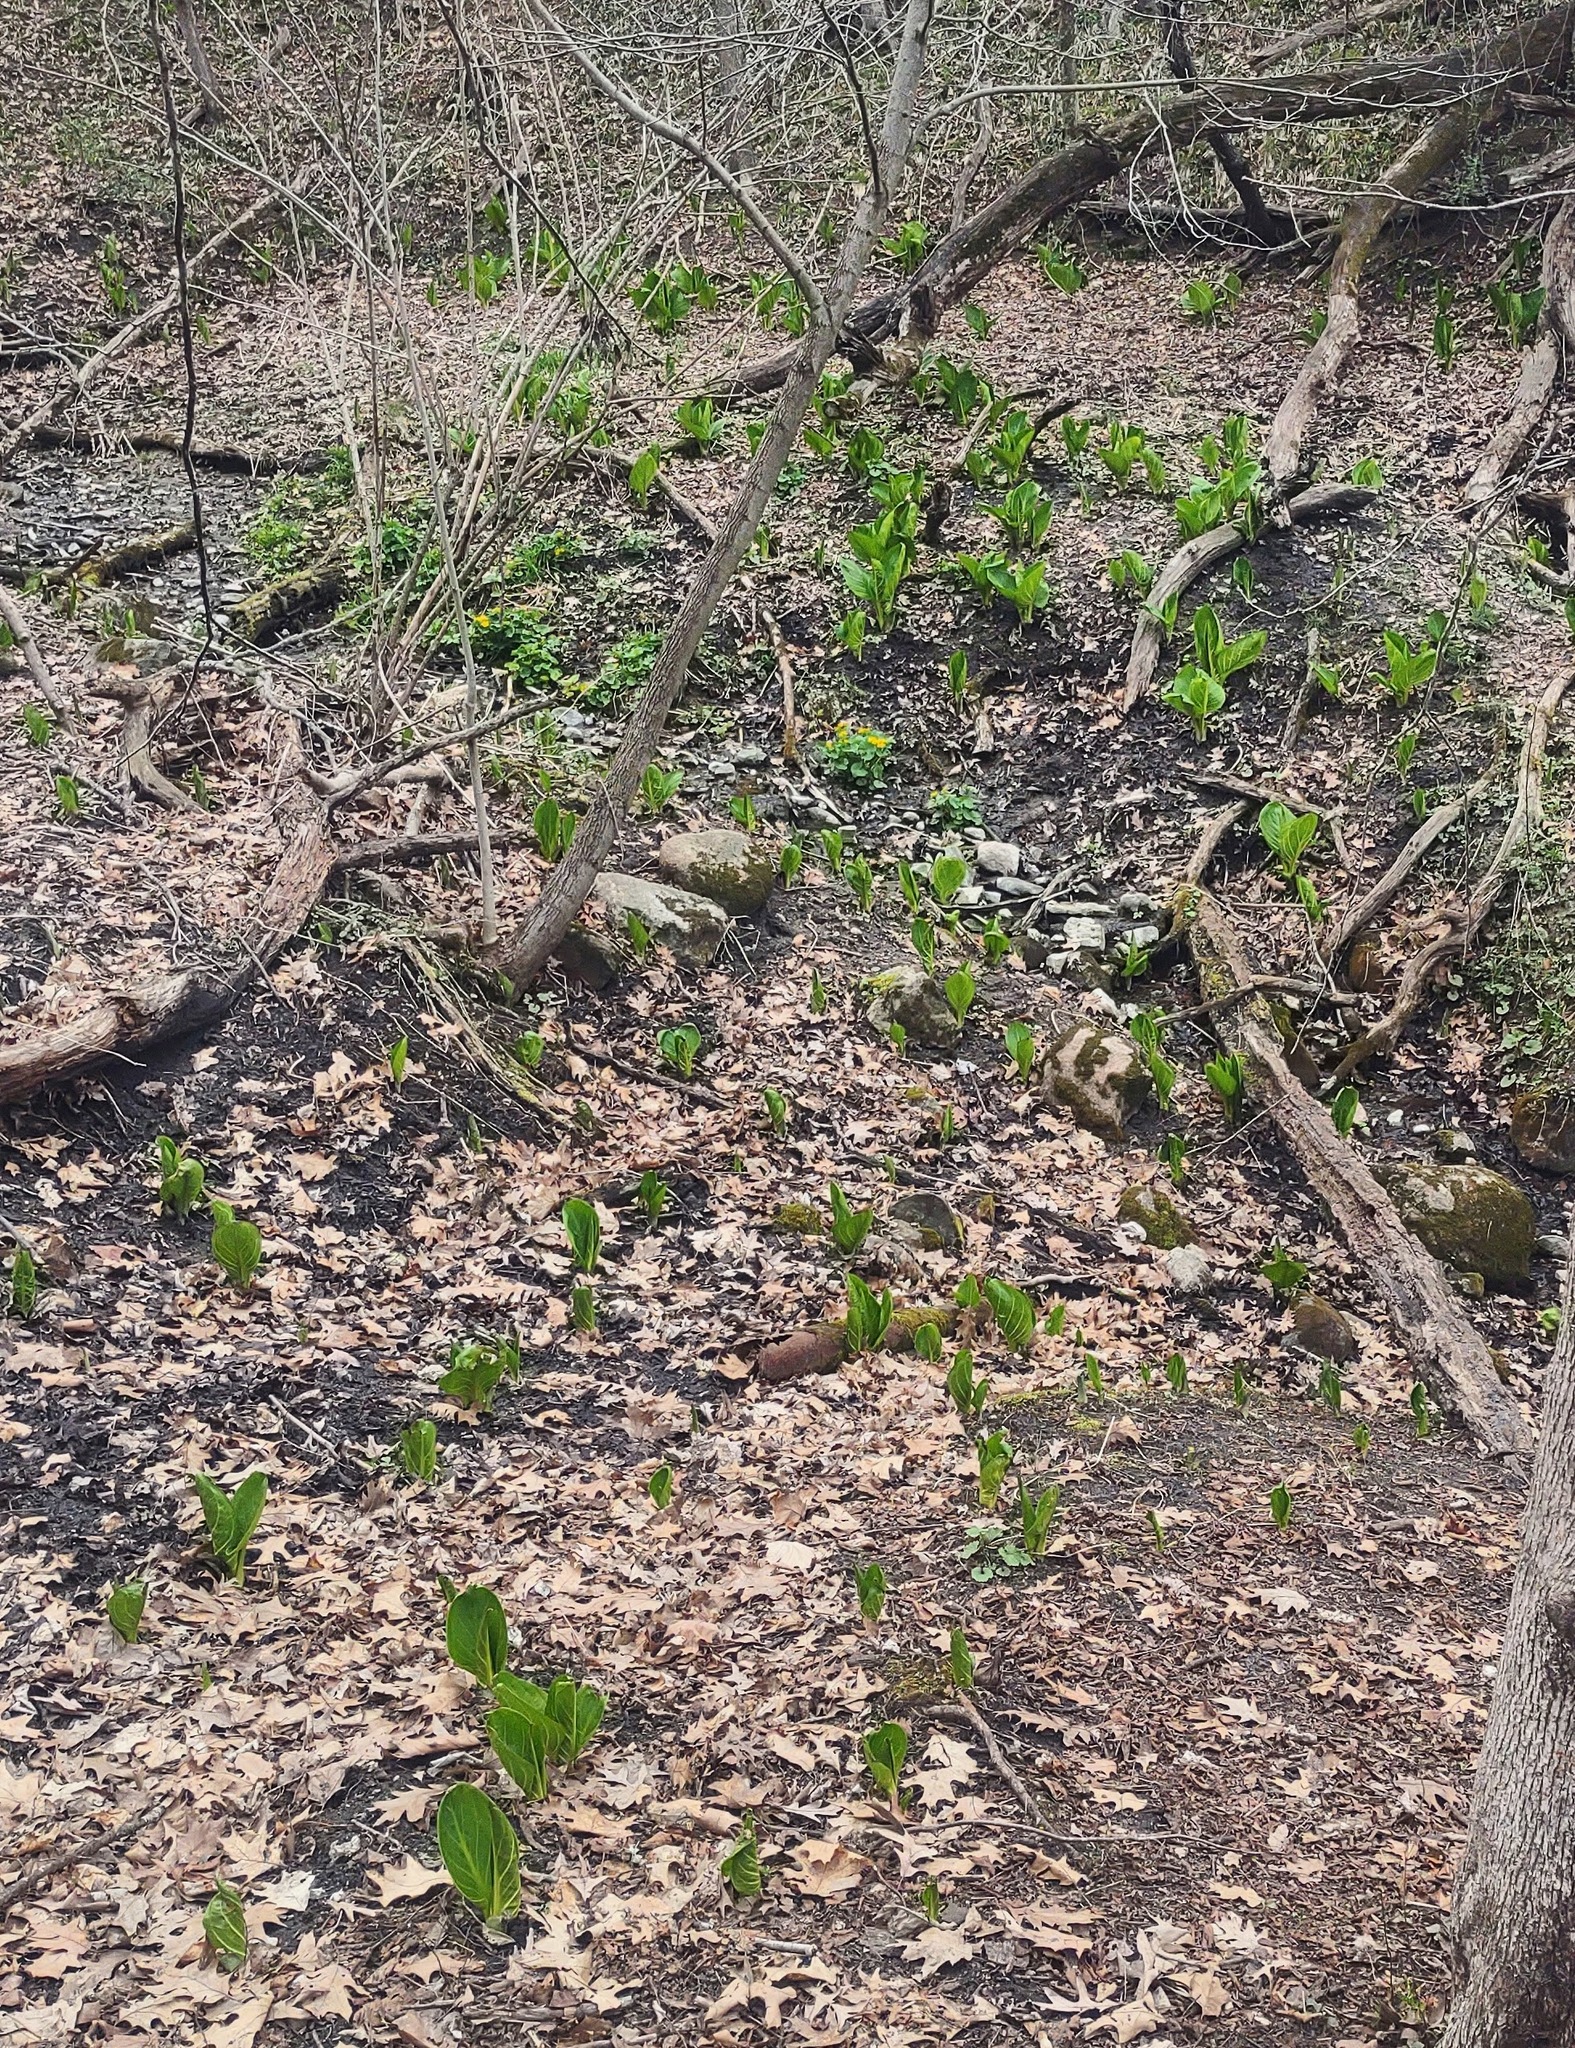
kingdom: Plantae
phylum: Tracheophyta
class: Liliopsida
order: Alismatales
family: Araceae
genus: Symplocarpus
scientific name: Symplocarpus foetidus
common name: Eastern skunk cabbage
